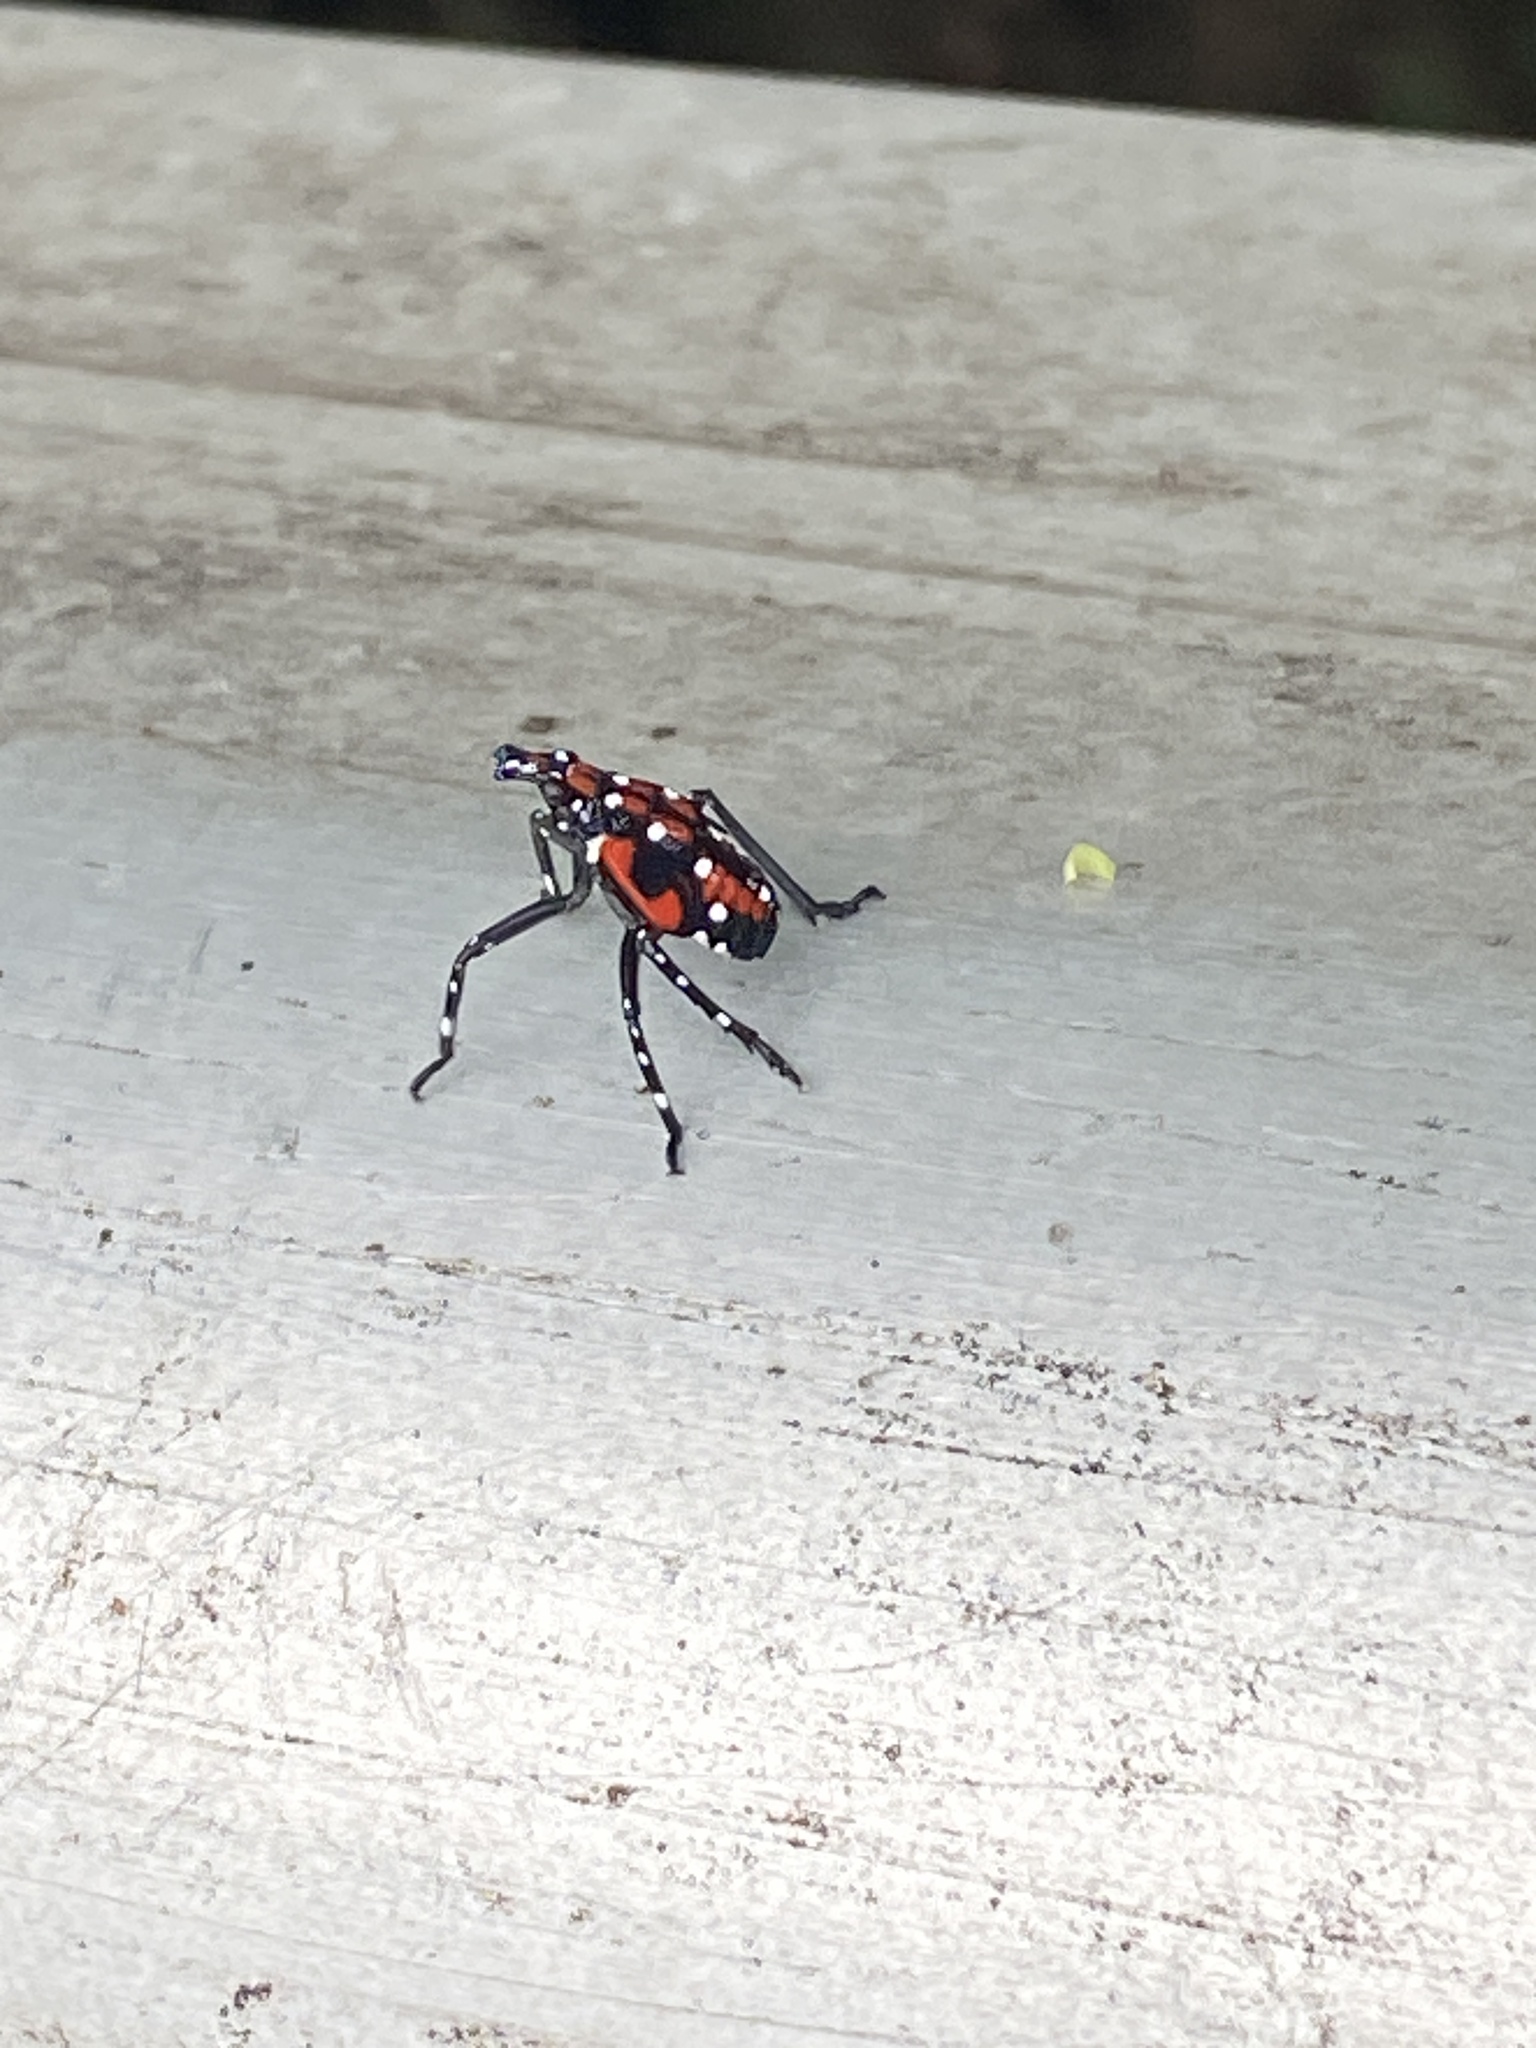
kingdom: Animalia
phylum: Arthropoda
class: Insecta
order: Hemiptera
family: Fulgoridae
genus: Lycorma
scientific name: Lycorma delicatula
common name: Spotted lanternfly
